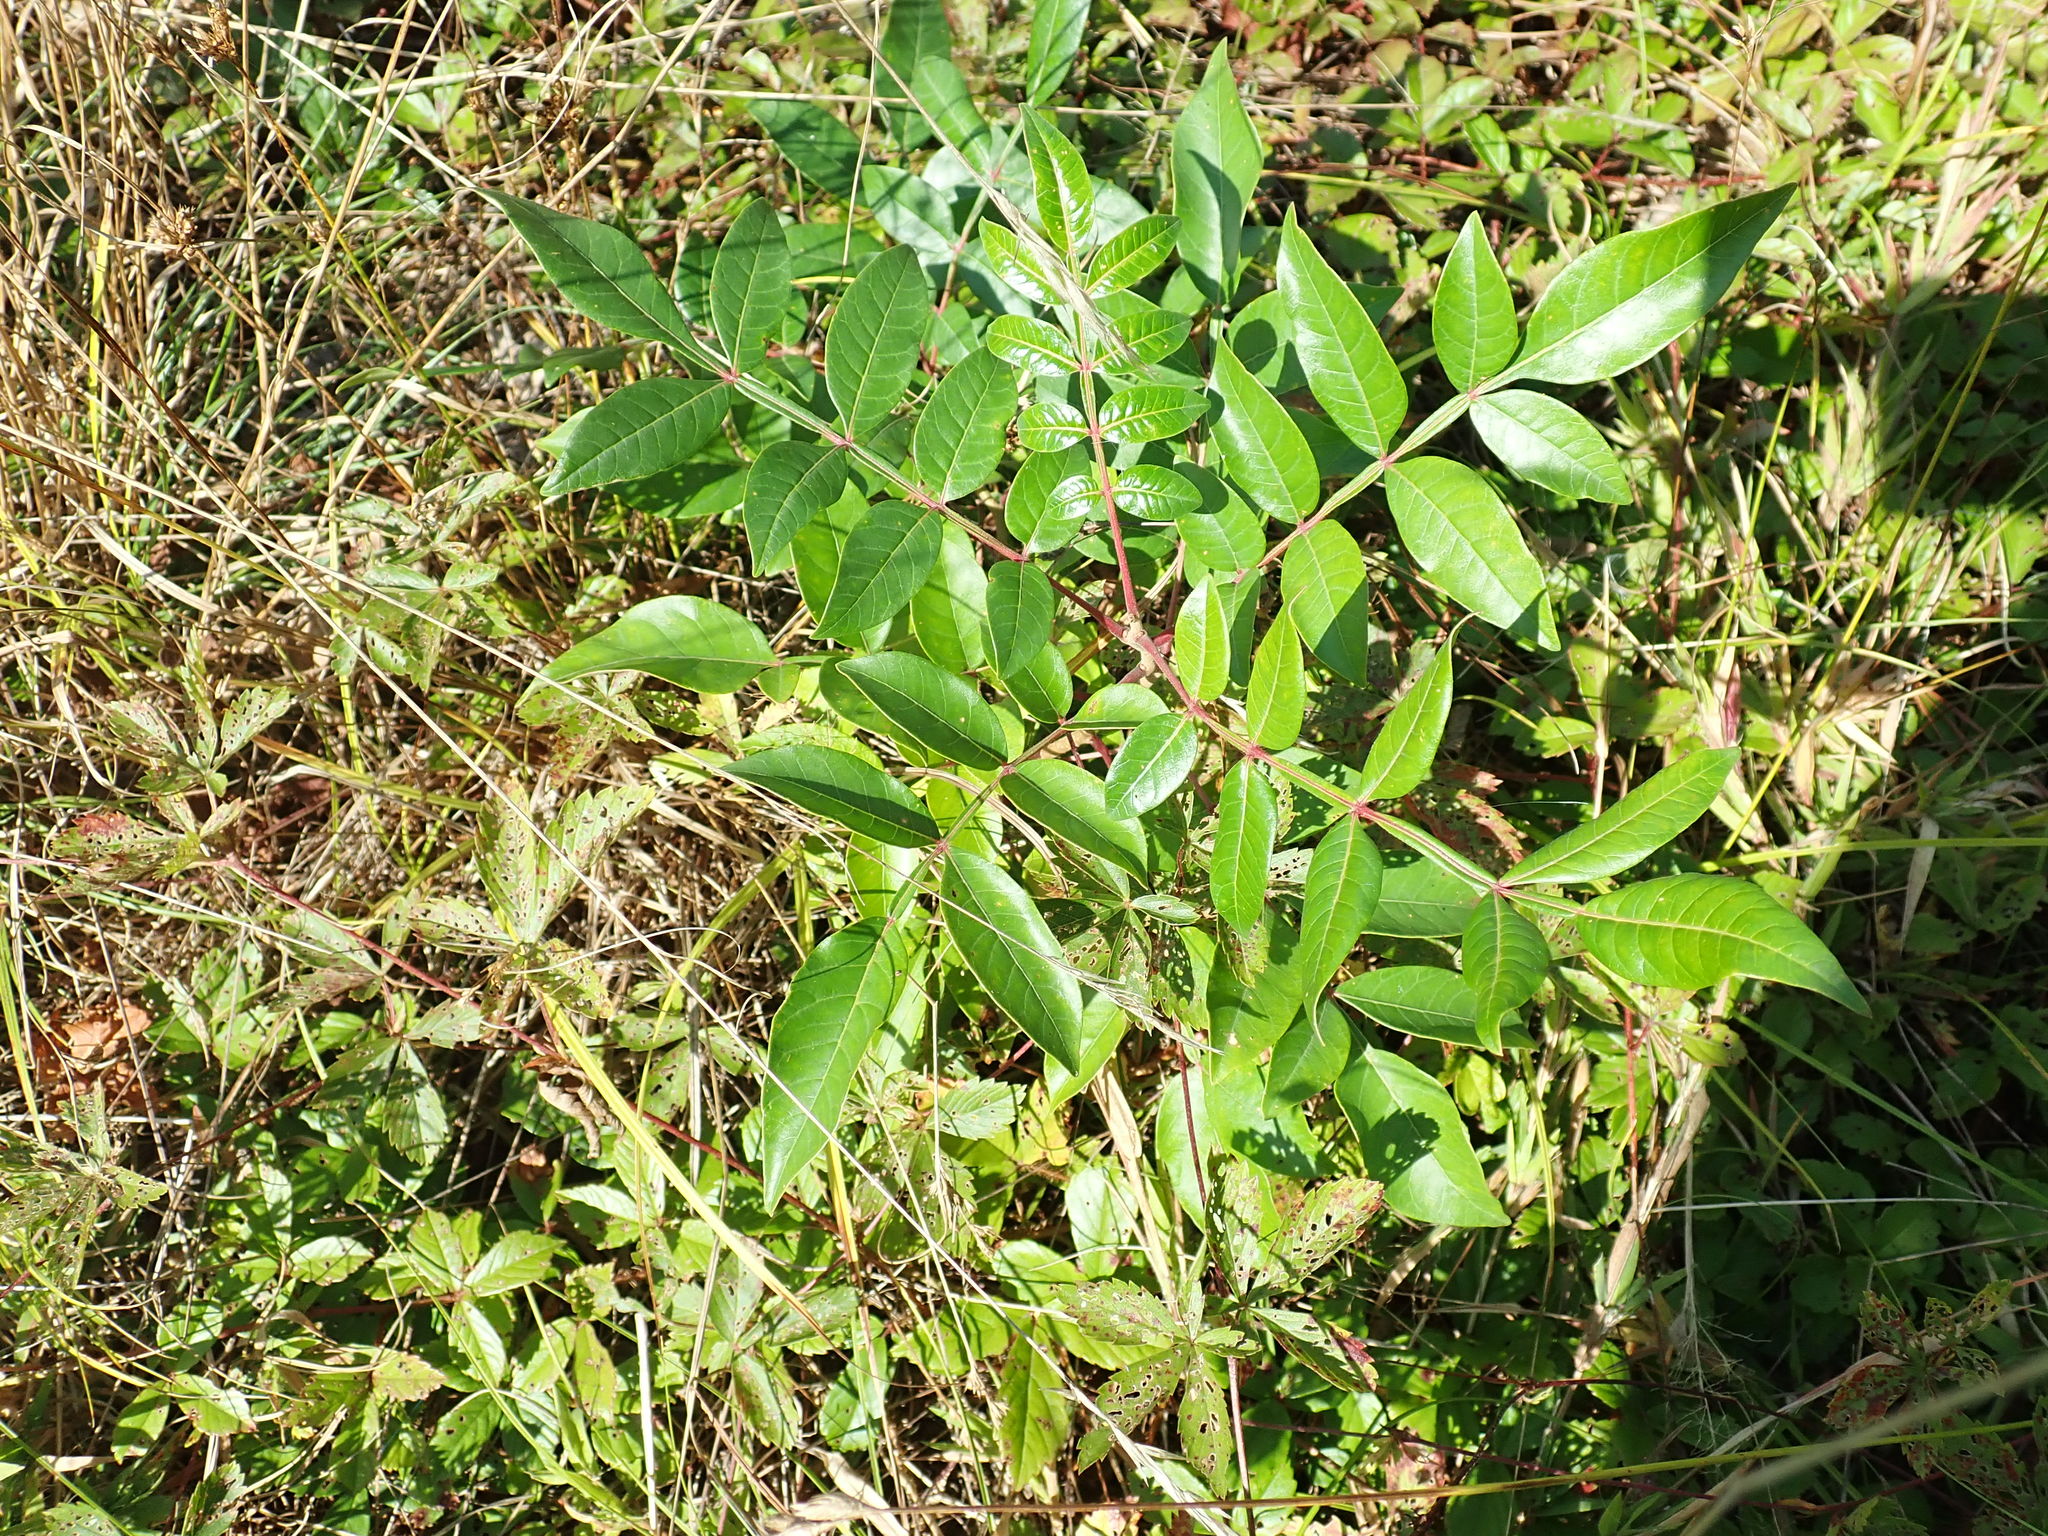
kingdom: Plantae
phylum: Tracheophyta
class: Magnoliopsida
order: Sapindales
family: Anacardiaceae
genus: Rhus
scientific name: Rhus copallina
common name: Shining sumac
